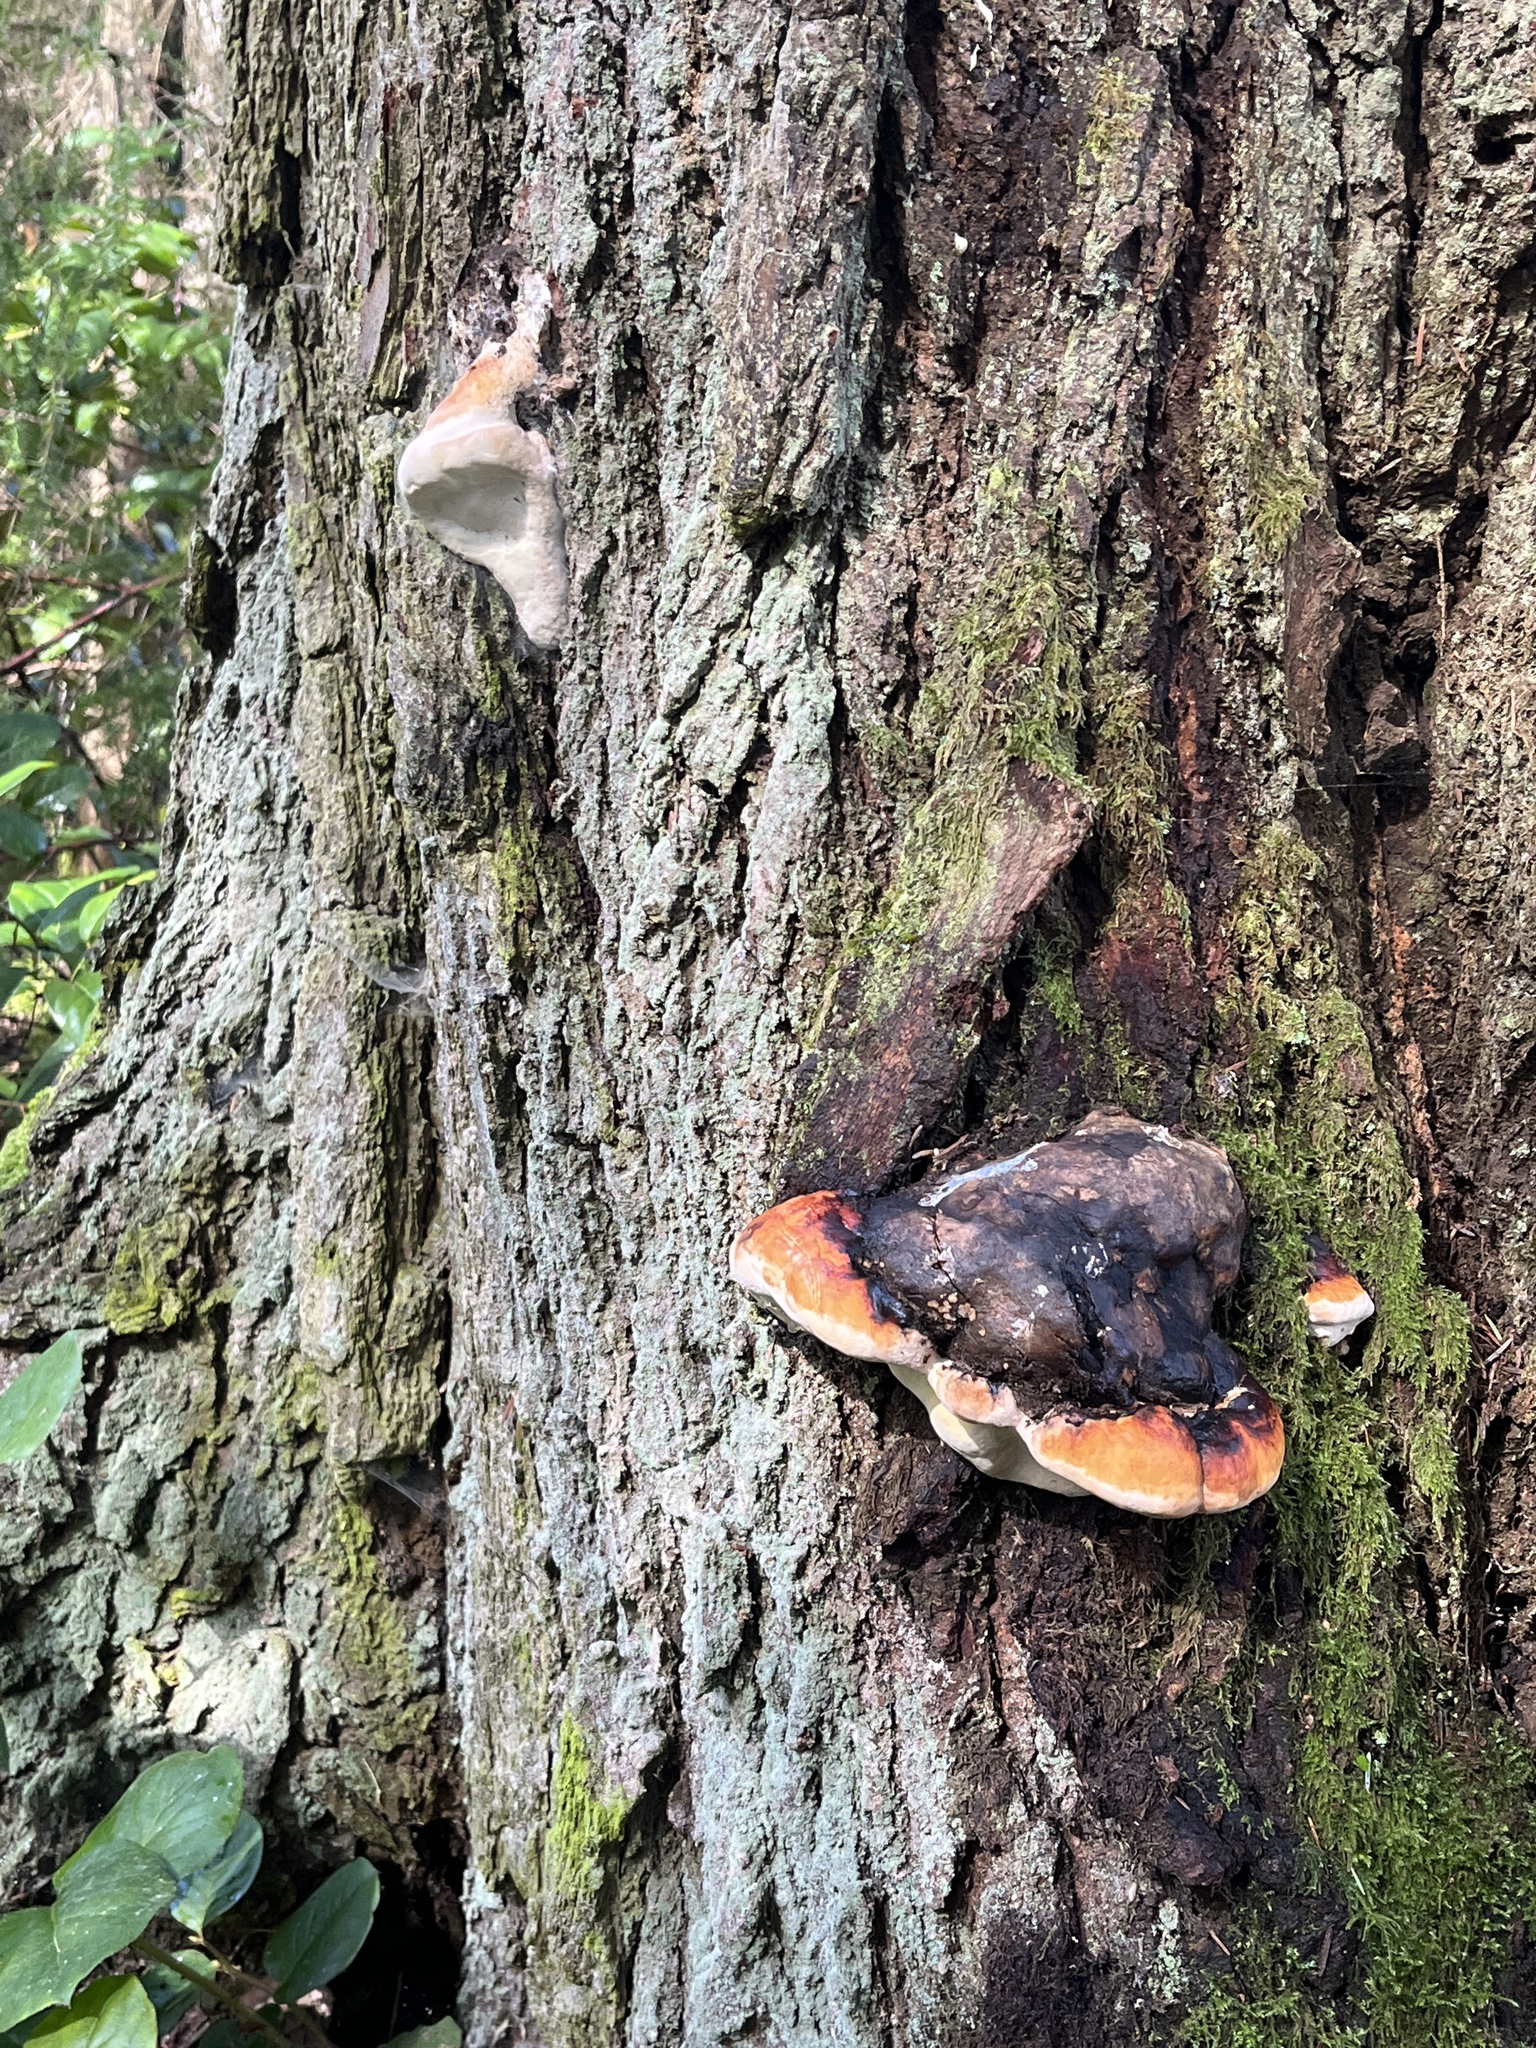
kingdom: Fungi
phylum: Basidiomycota
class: Agaricomycetes
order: Polyporales
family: Fomitopsidaceae
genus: Fomitopsis
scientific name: Fomitopsis mounceae
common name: Northern red belt
